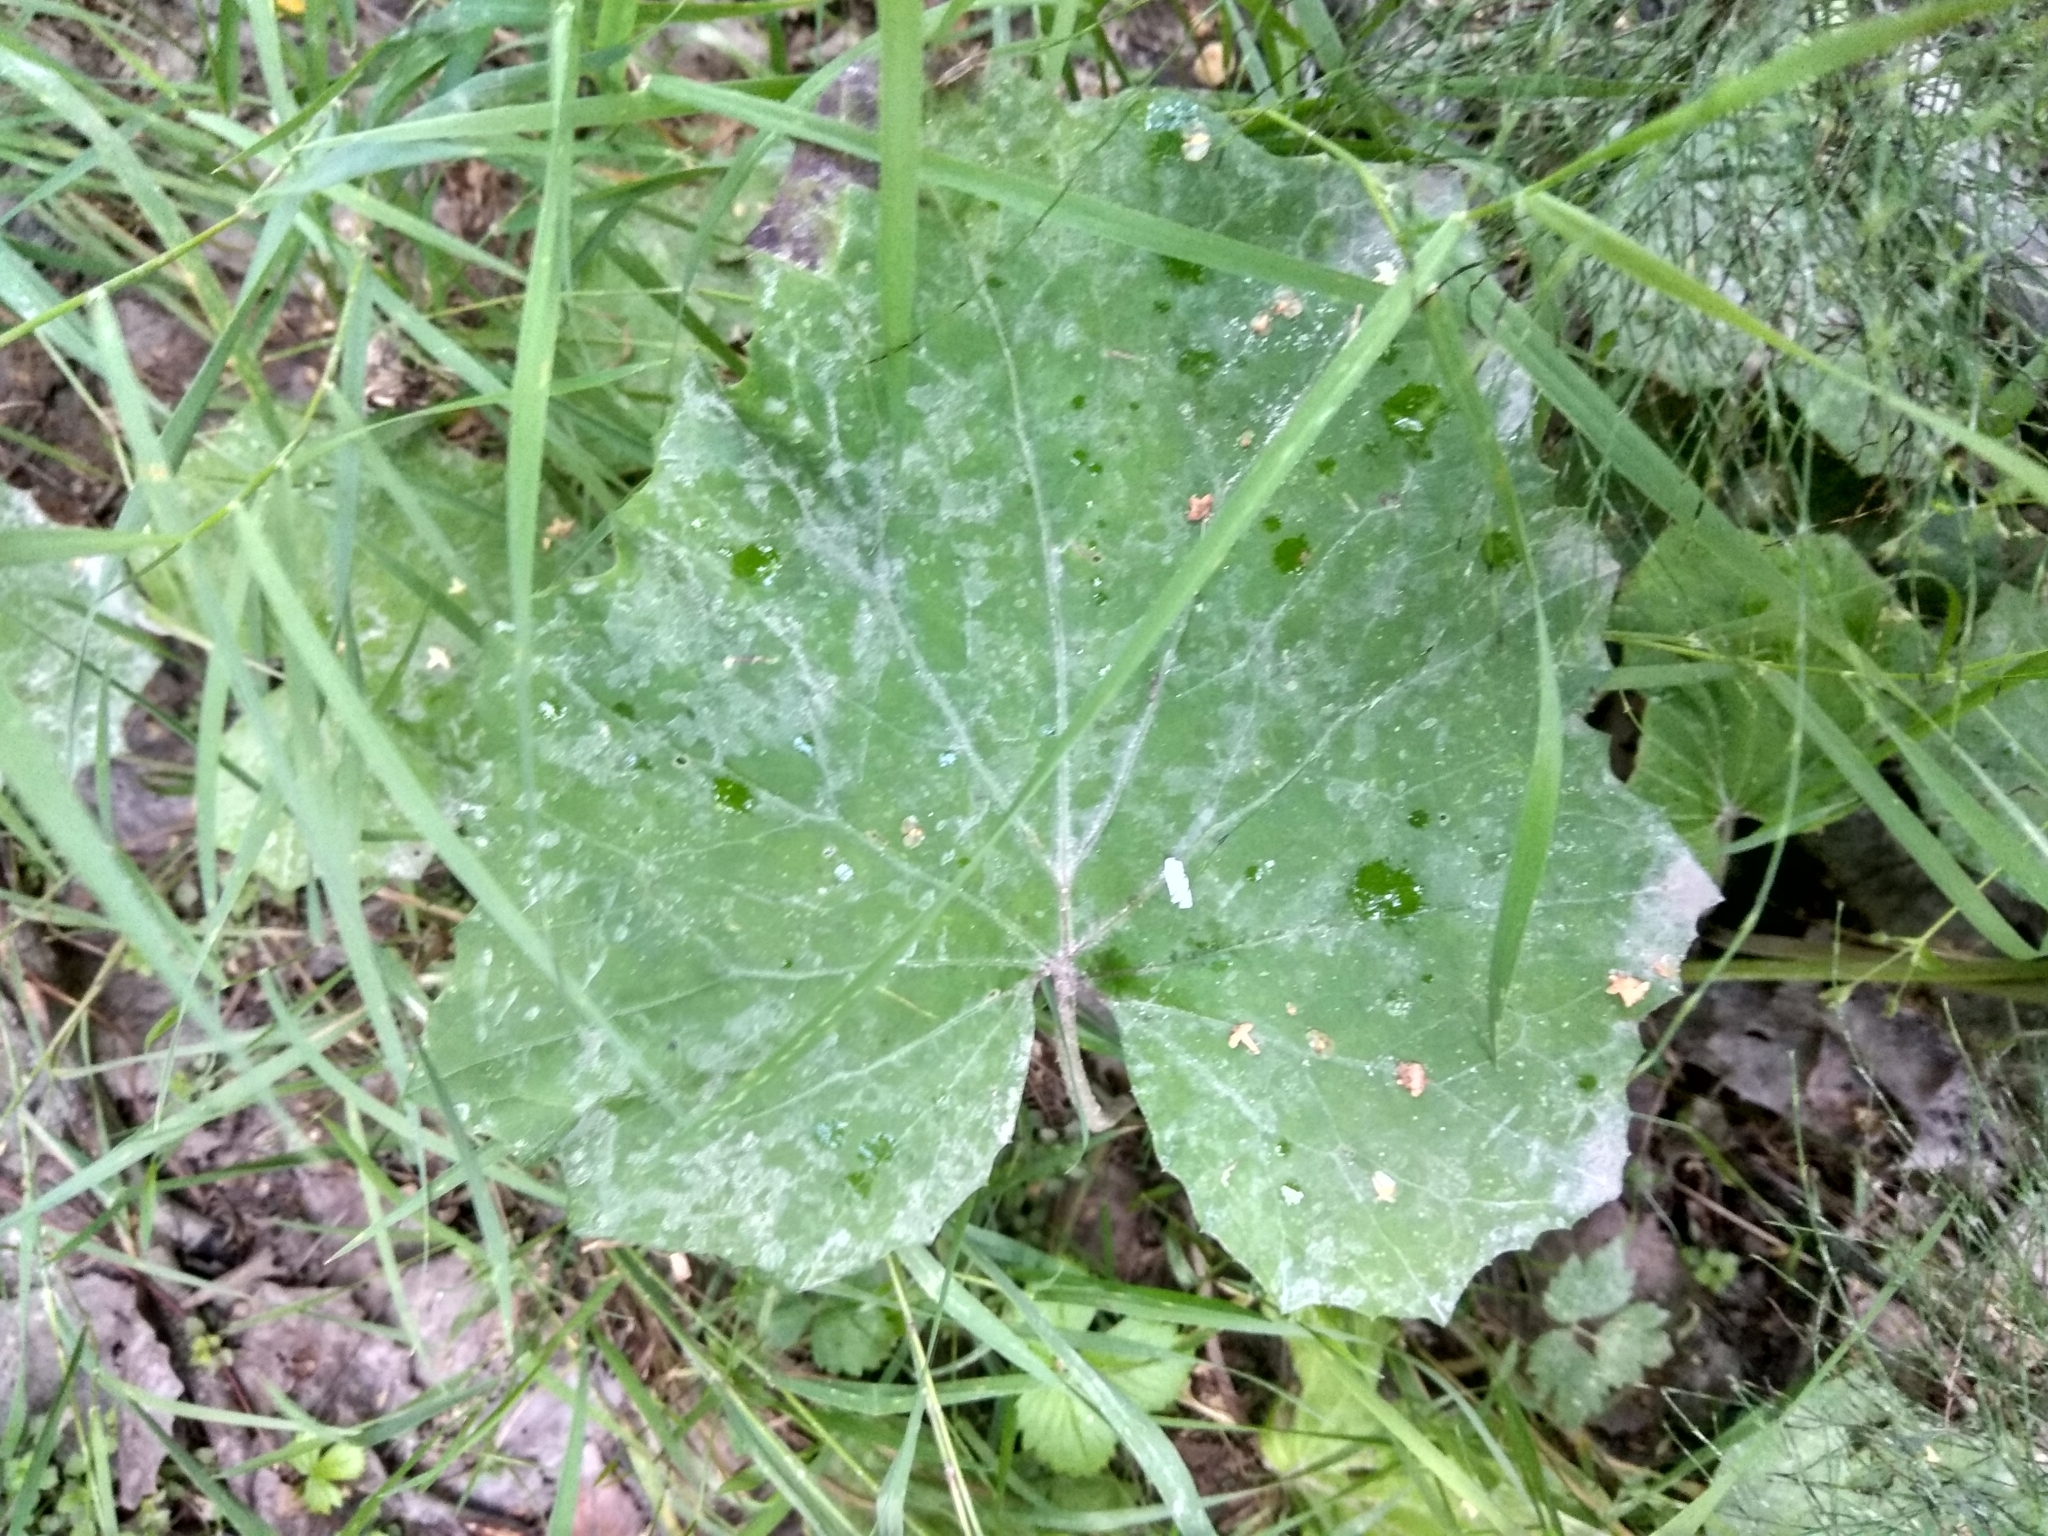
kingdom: Plantae
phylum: Tracheophyta
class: Magnoliopsida
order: Asterales
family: Asteraceae
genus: Tussilago
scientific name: Tussilago farfara
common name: Coltsfoot
